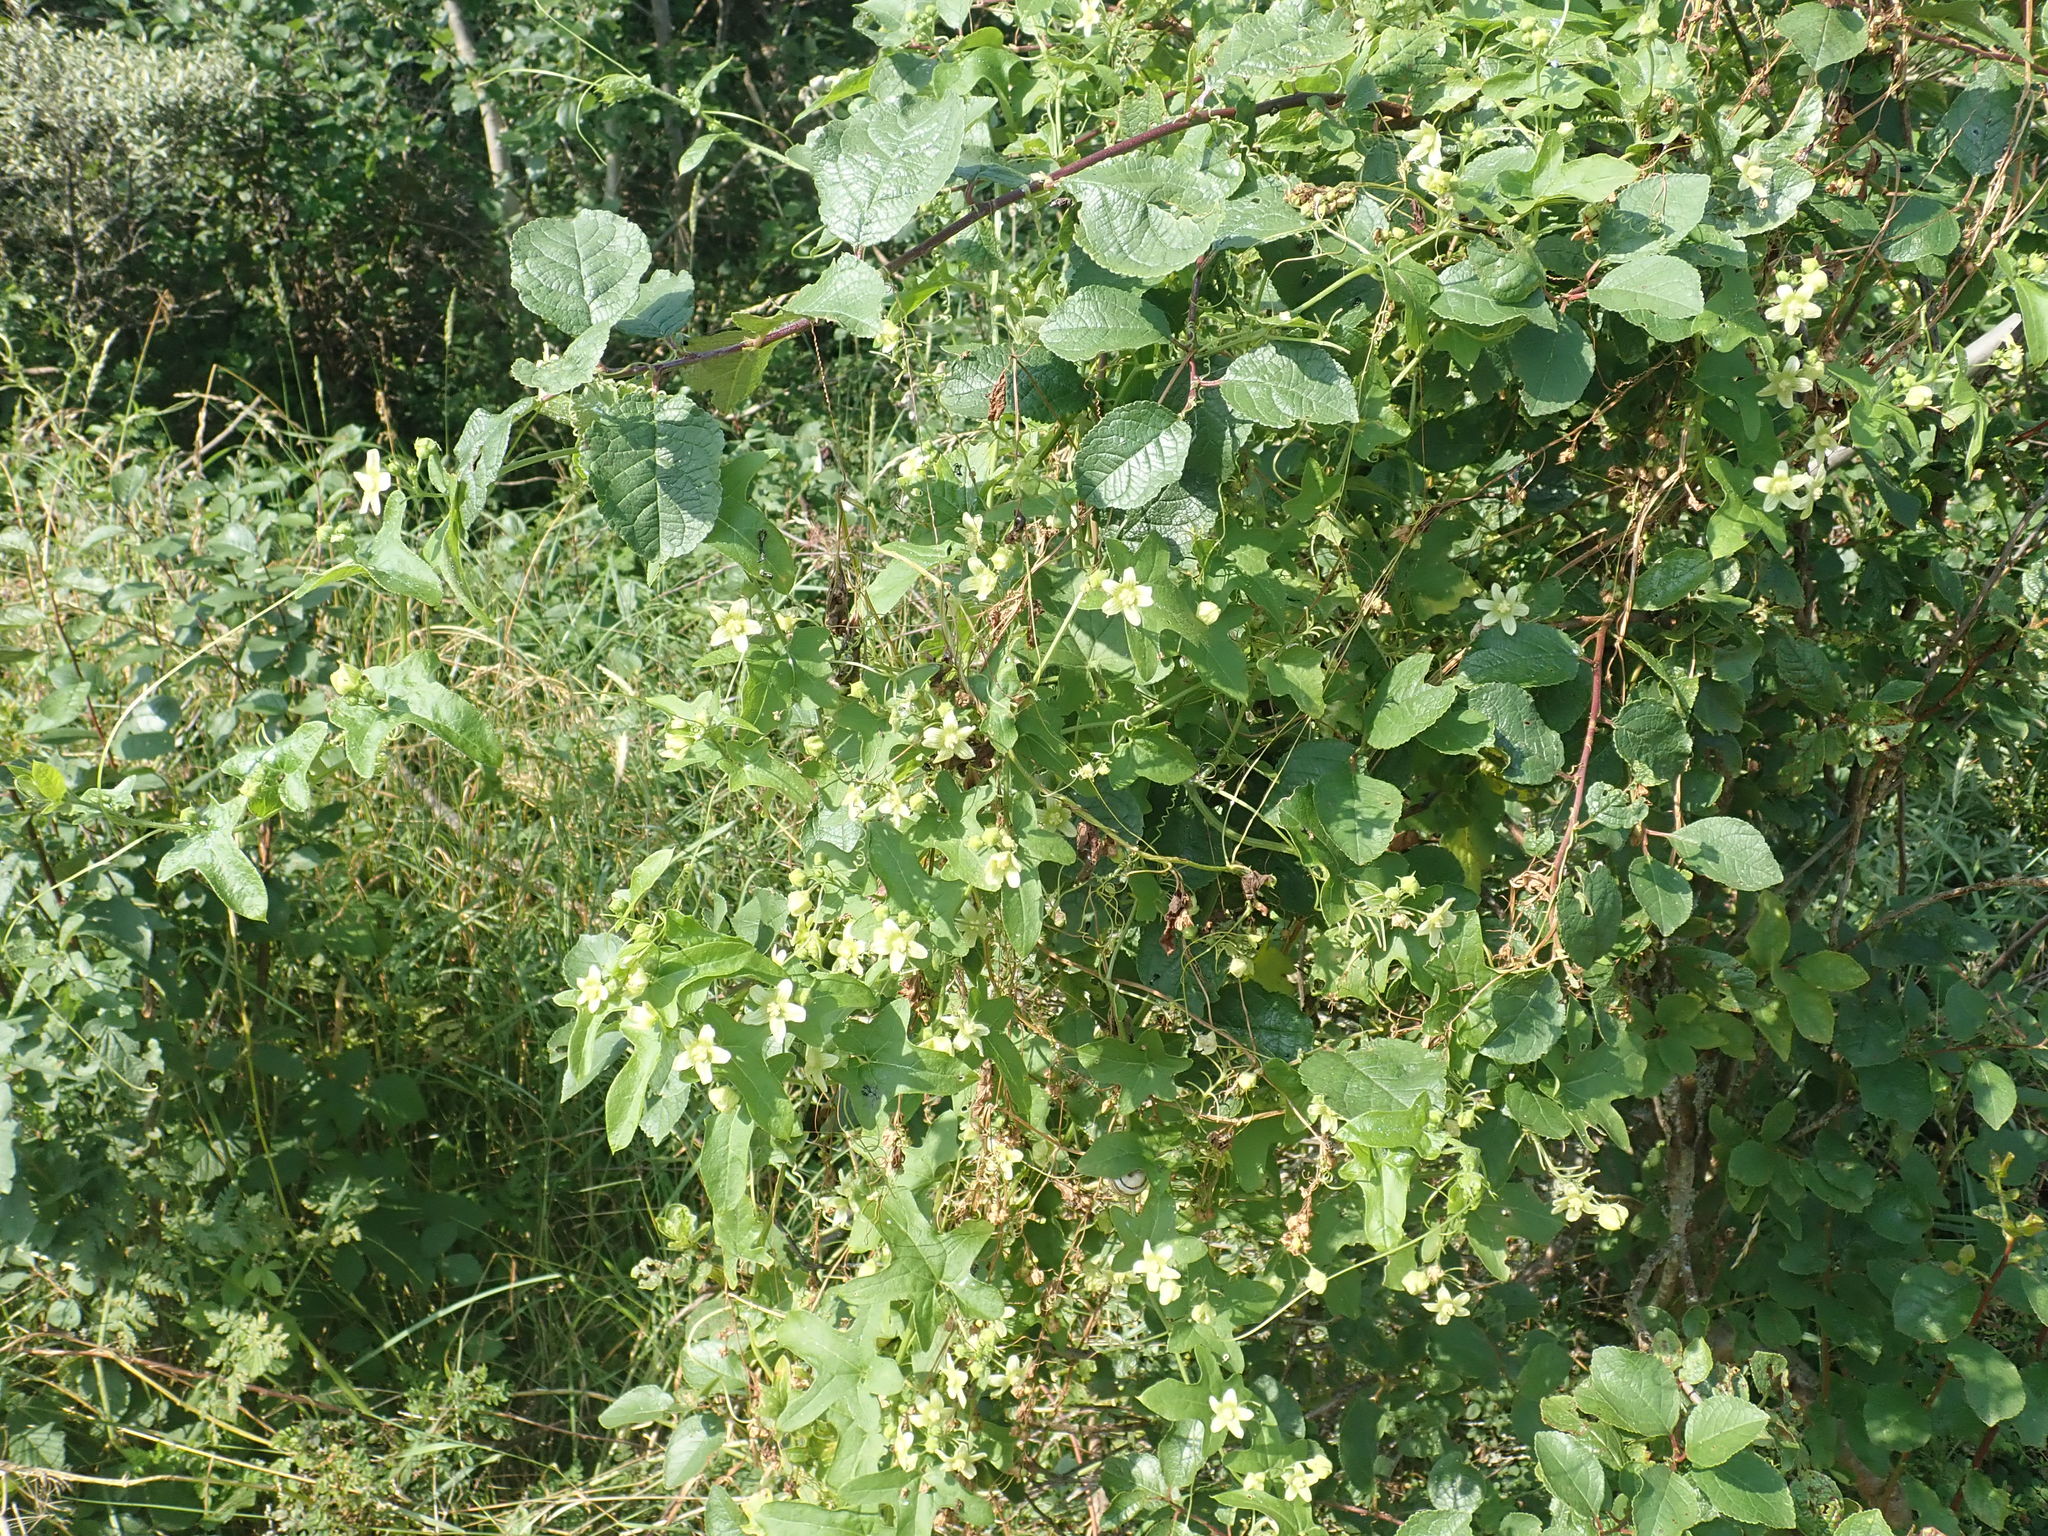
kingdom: Plantae
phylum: Tracheophyta
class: Magnoliopsida
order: Cucurbitales
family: Cucurbitaceae
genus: Bryonia
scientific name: Bryonia cretica
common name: Cretan bryony
